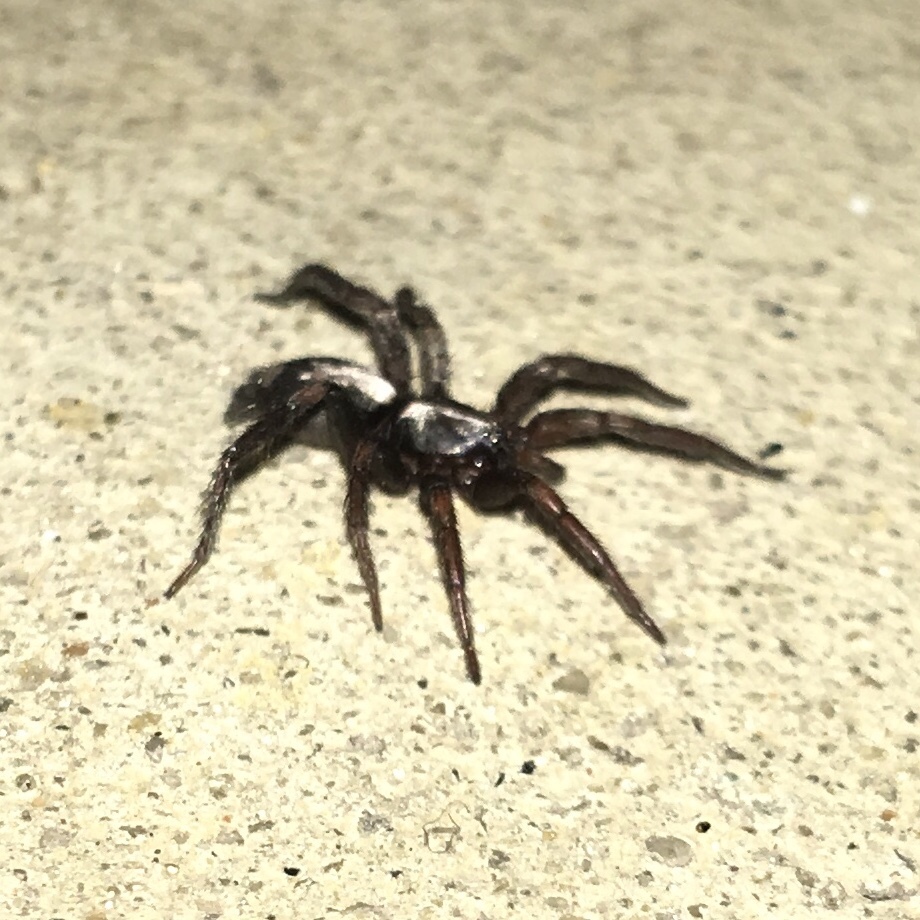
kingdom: Animalia
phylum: Arthropoda
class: Arachnida
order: Araneae
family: Gnaphosidae
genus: Herpyllus
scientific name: Herpyllus ecclesiasticus
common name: Eastern parson spider
